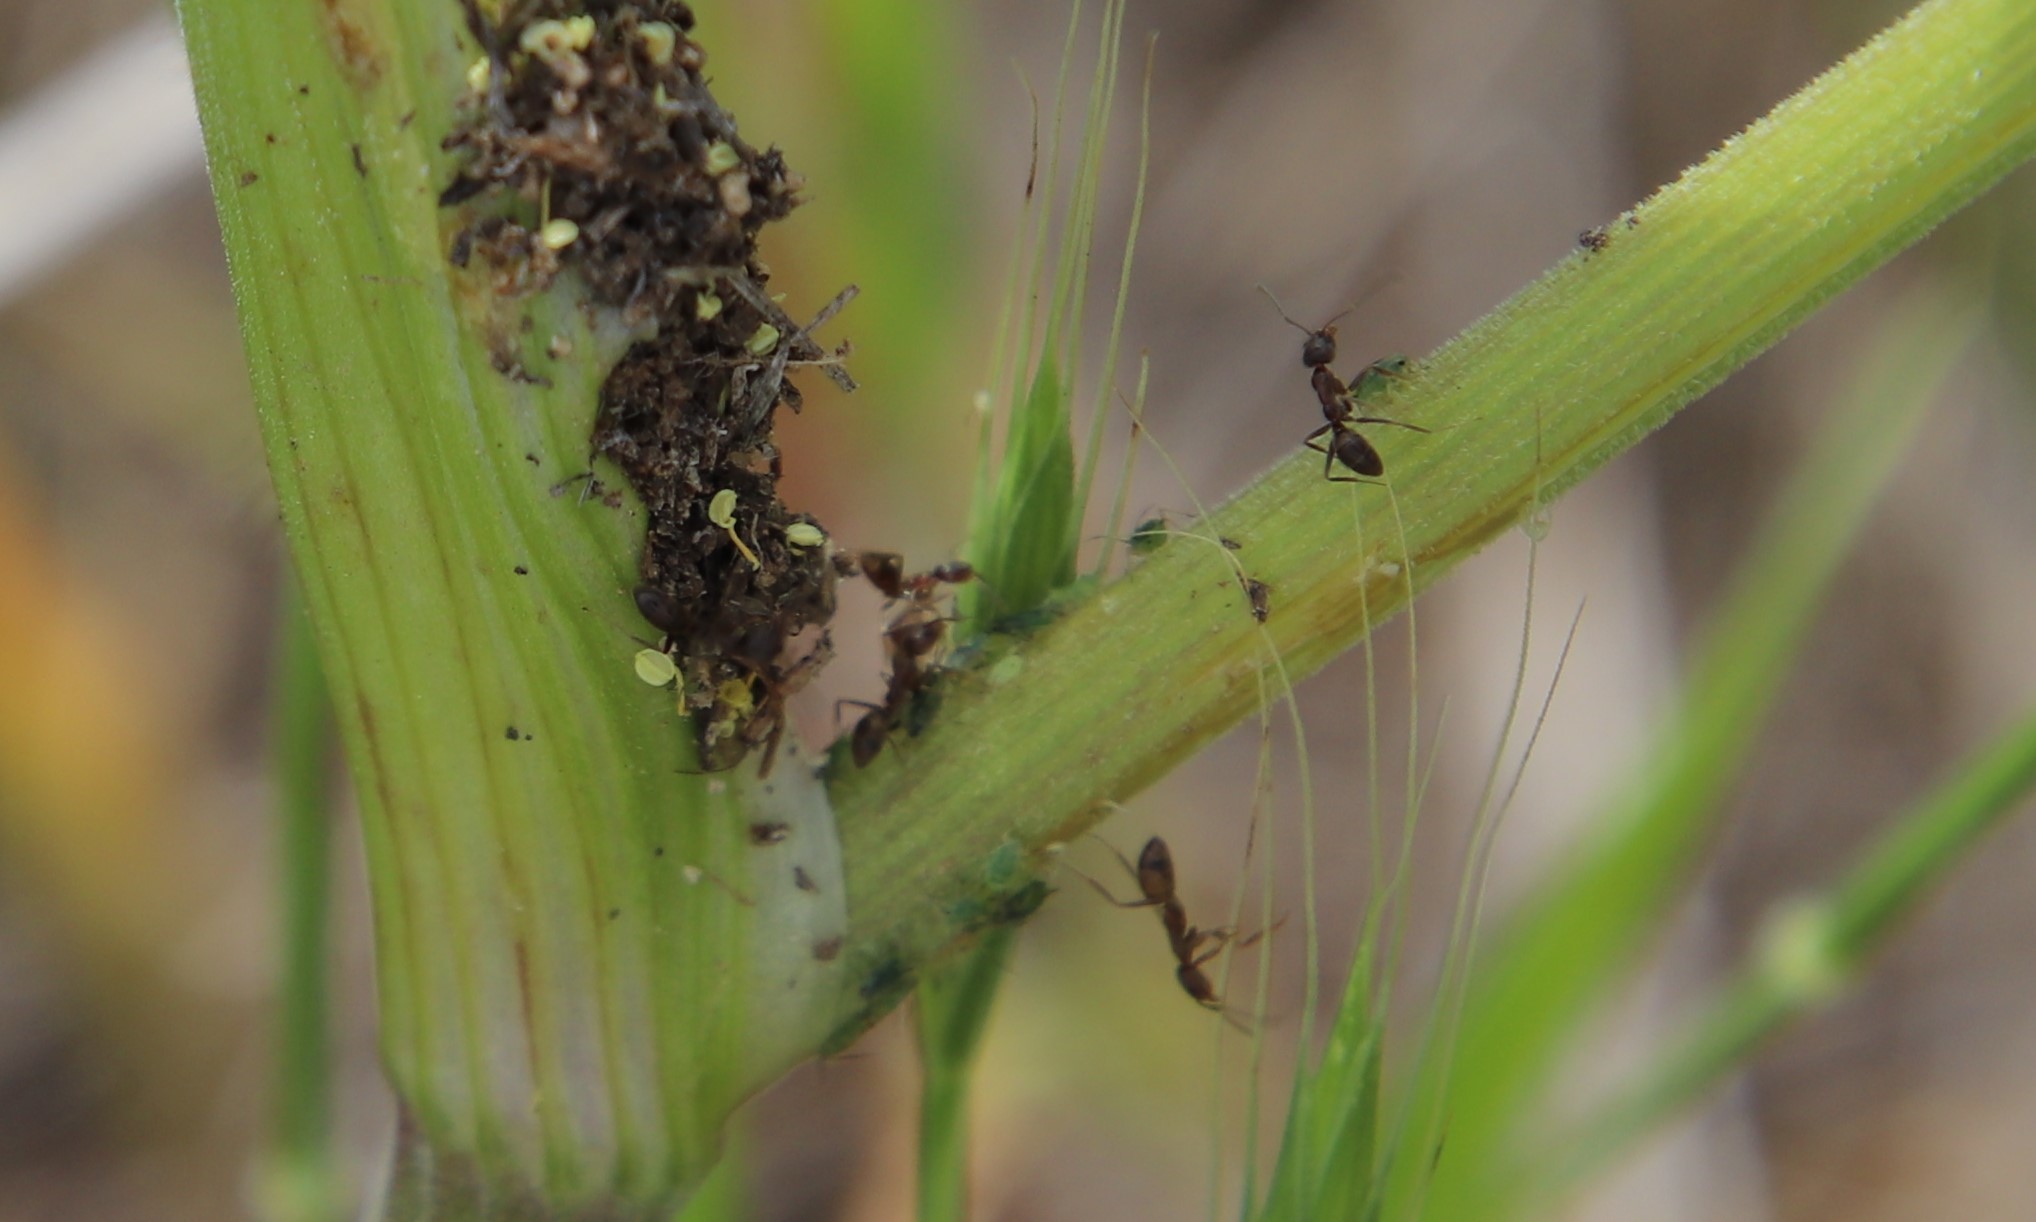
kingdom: Animalia
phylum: Arthropoda
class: Insecta
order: Hymenoptera
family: Formicidae
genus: Linepithema
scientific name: Linepithema humile
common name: Argentine ant
